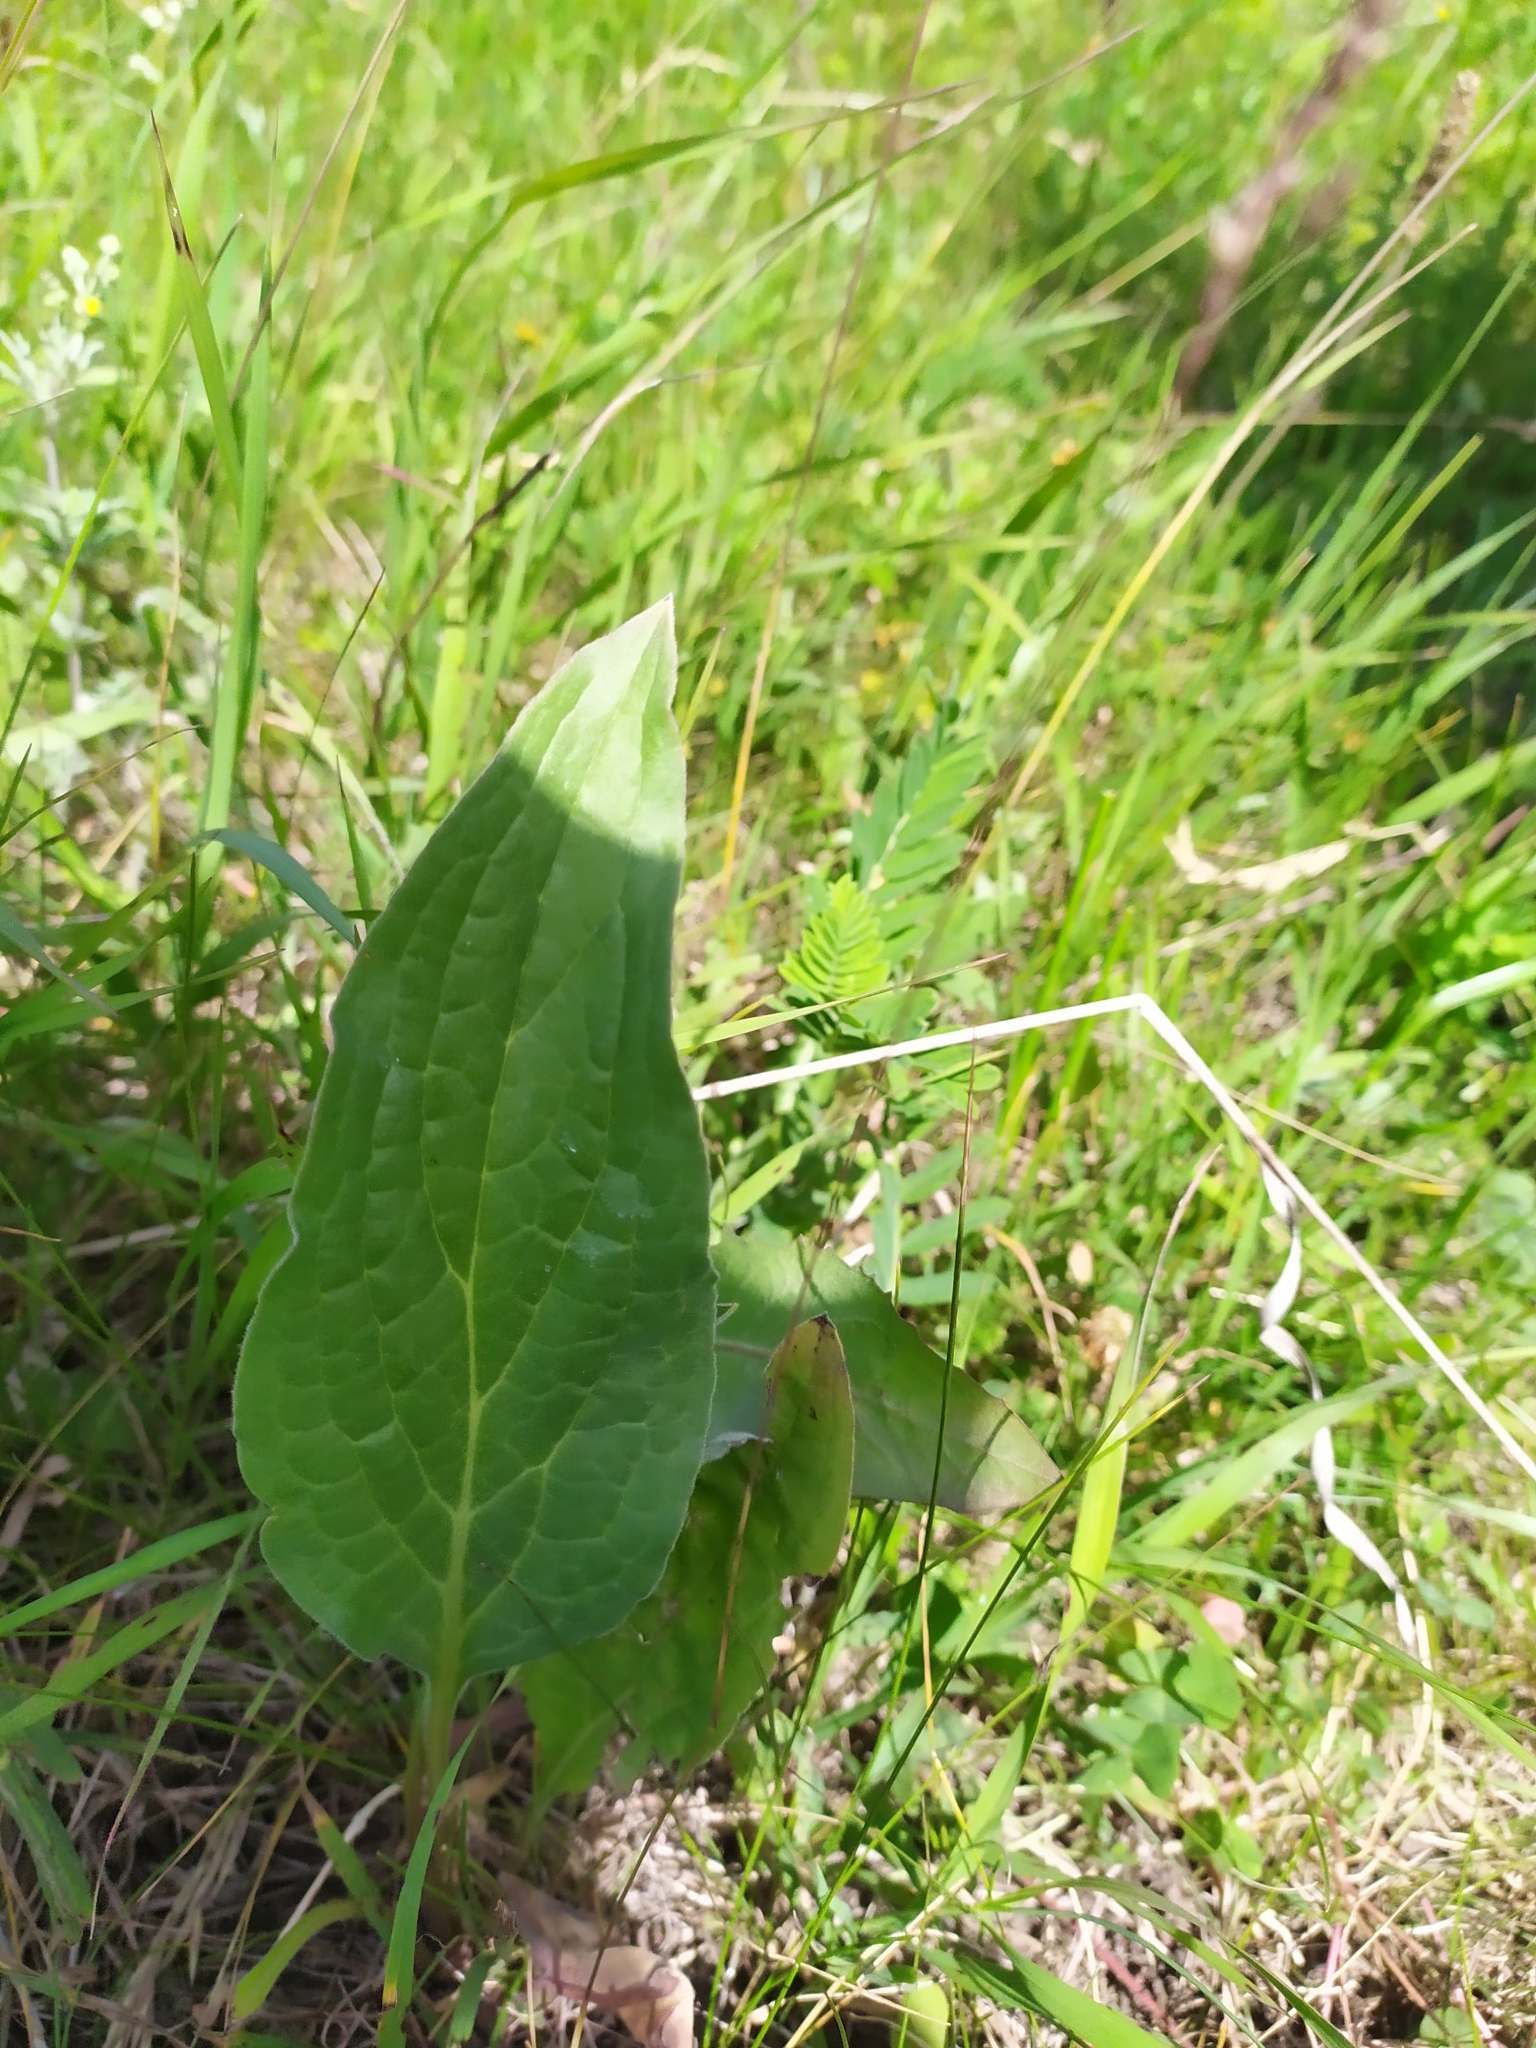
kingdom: Plantae
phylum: Tracheophyta
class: Magnoliopsida
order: Boraginales
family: Boraginaceae
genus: Cynoglossum
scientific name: Cynoglossum officinale
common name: Hound's-tongue
